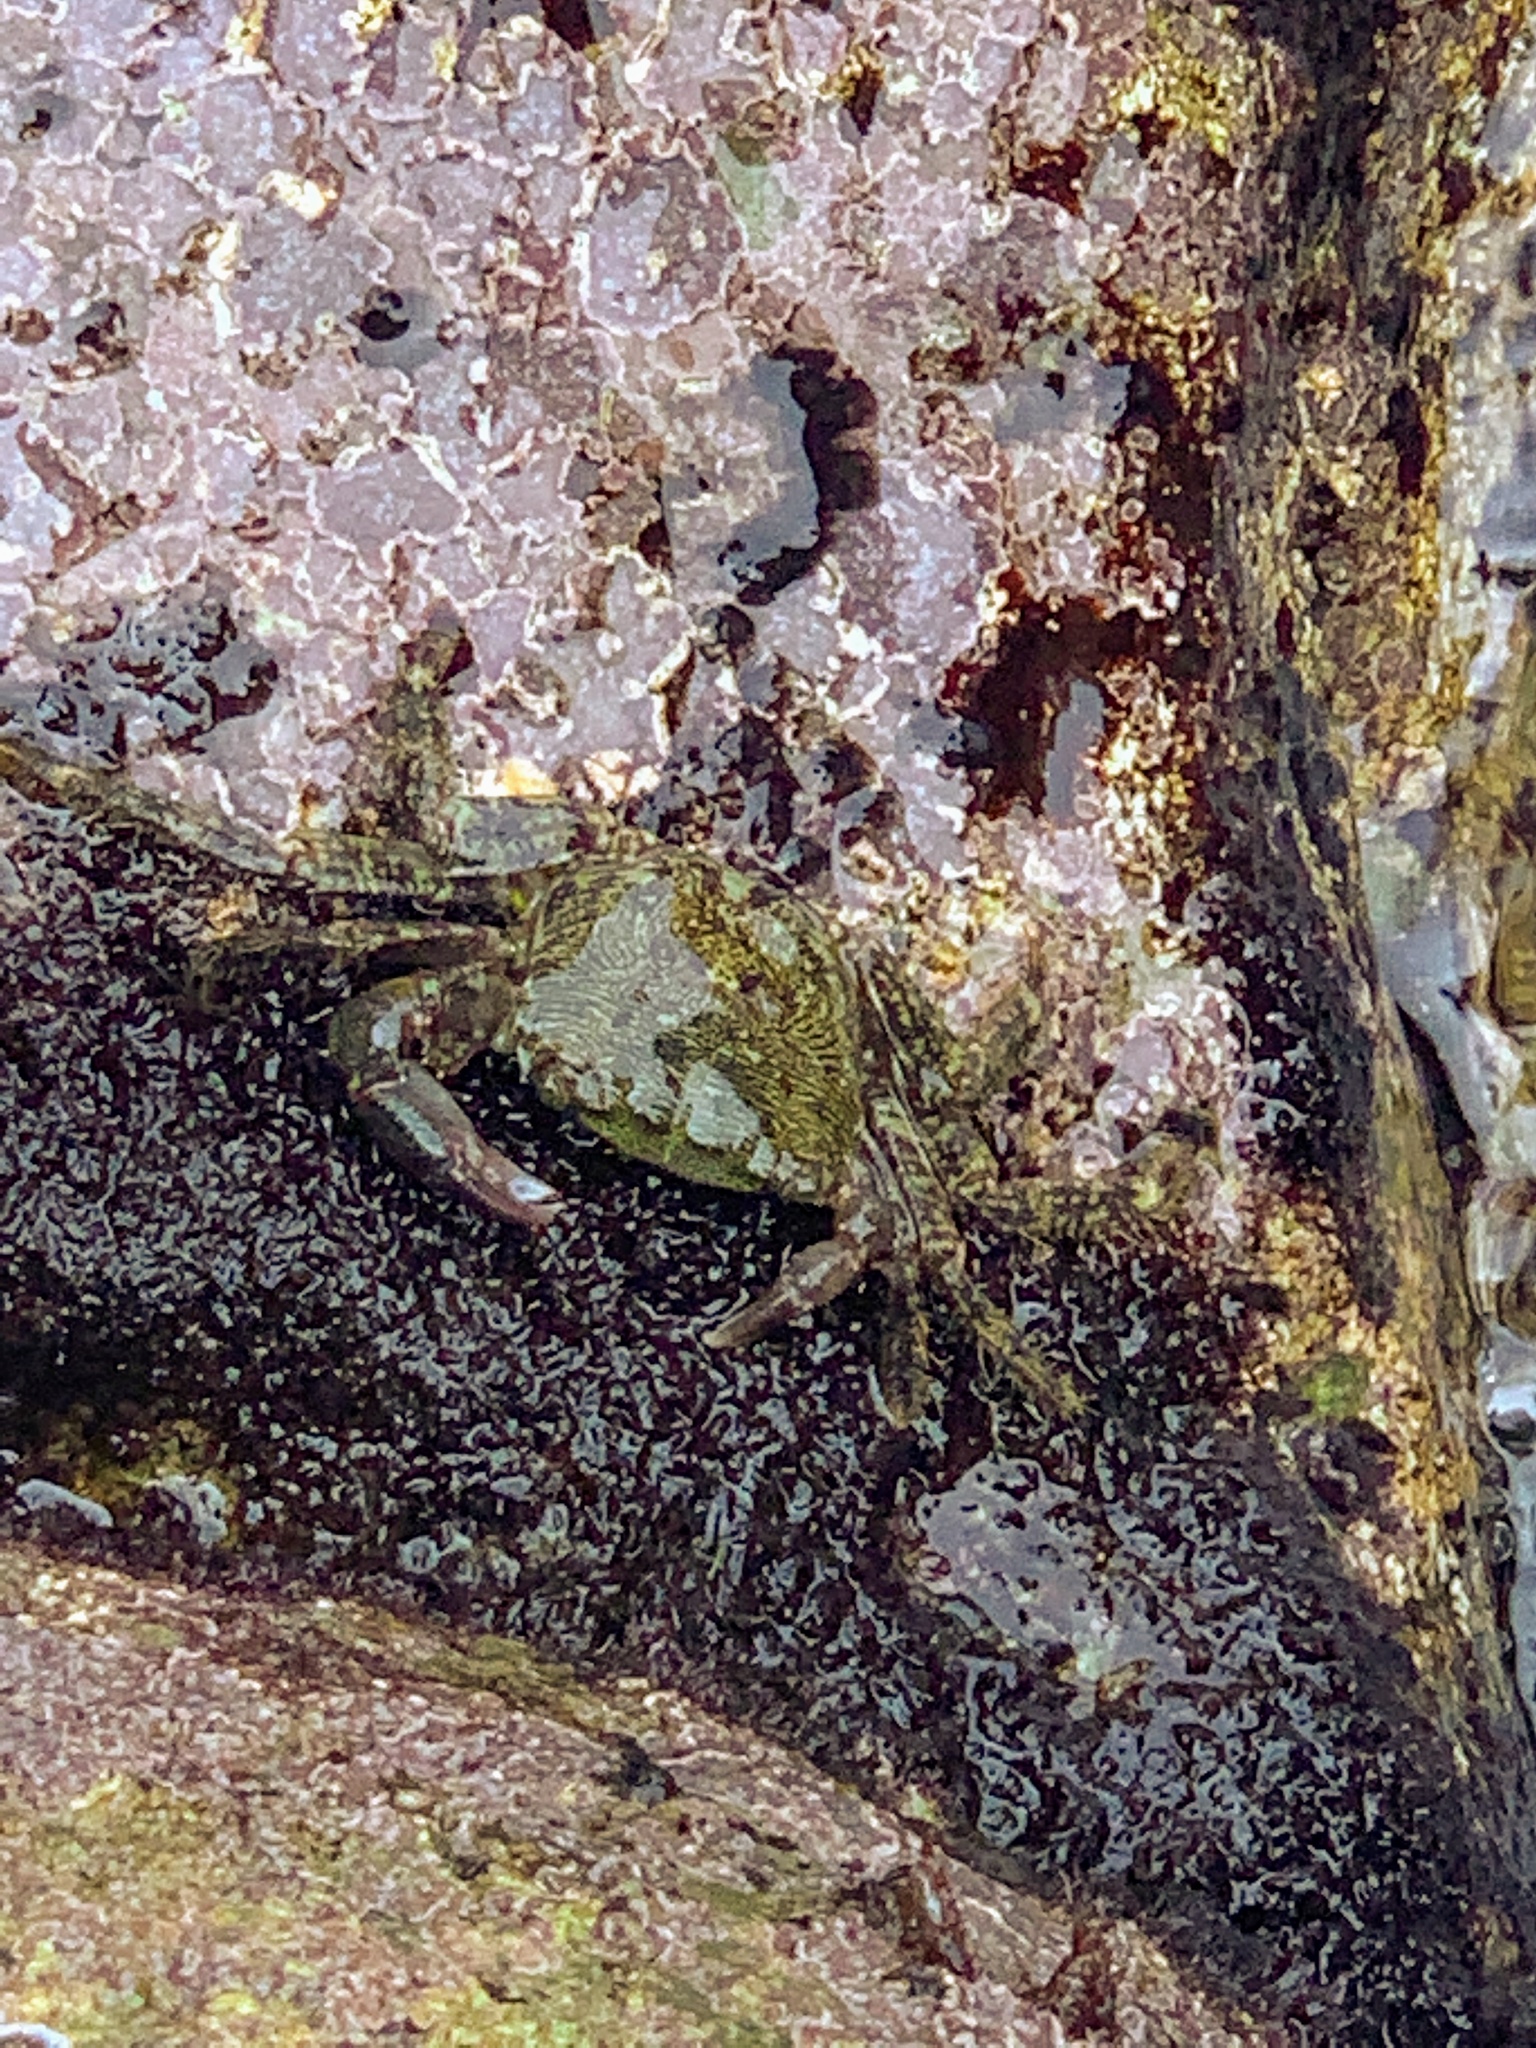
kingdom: Animalia
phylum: Arthropoda
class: Malacostraca
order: Decapoda
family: Grapsidae
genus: Pachygrapsus
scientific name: Pachygrapsus marmoratus
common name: Marbled rock crab
